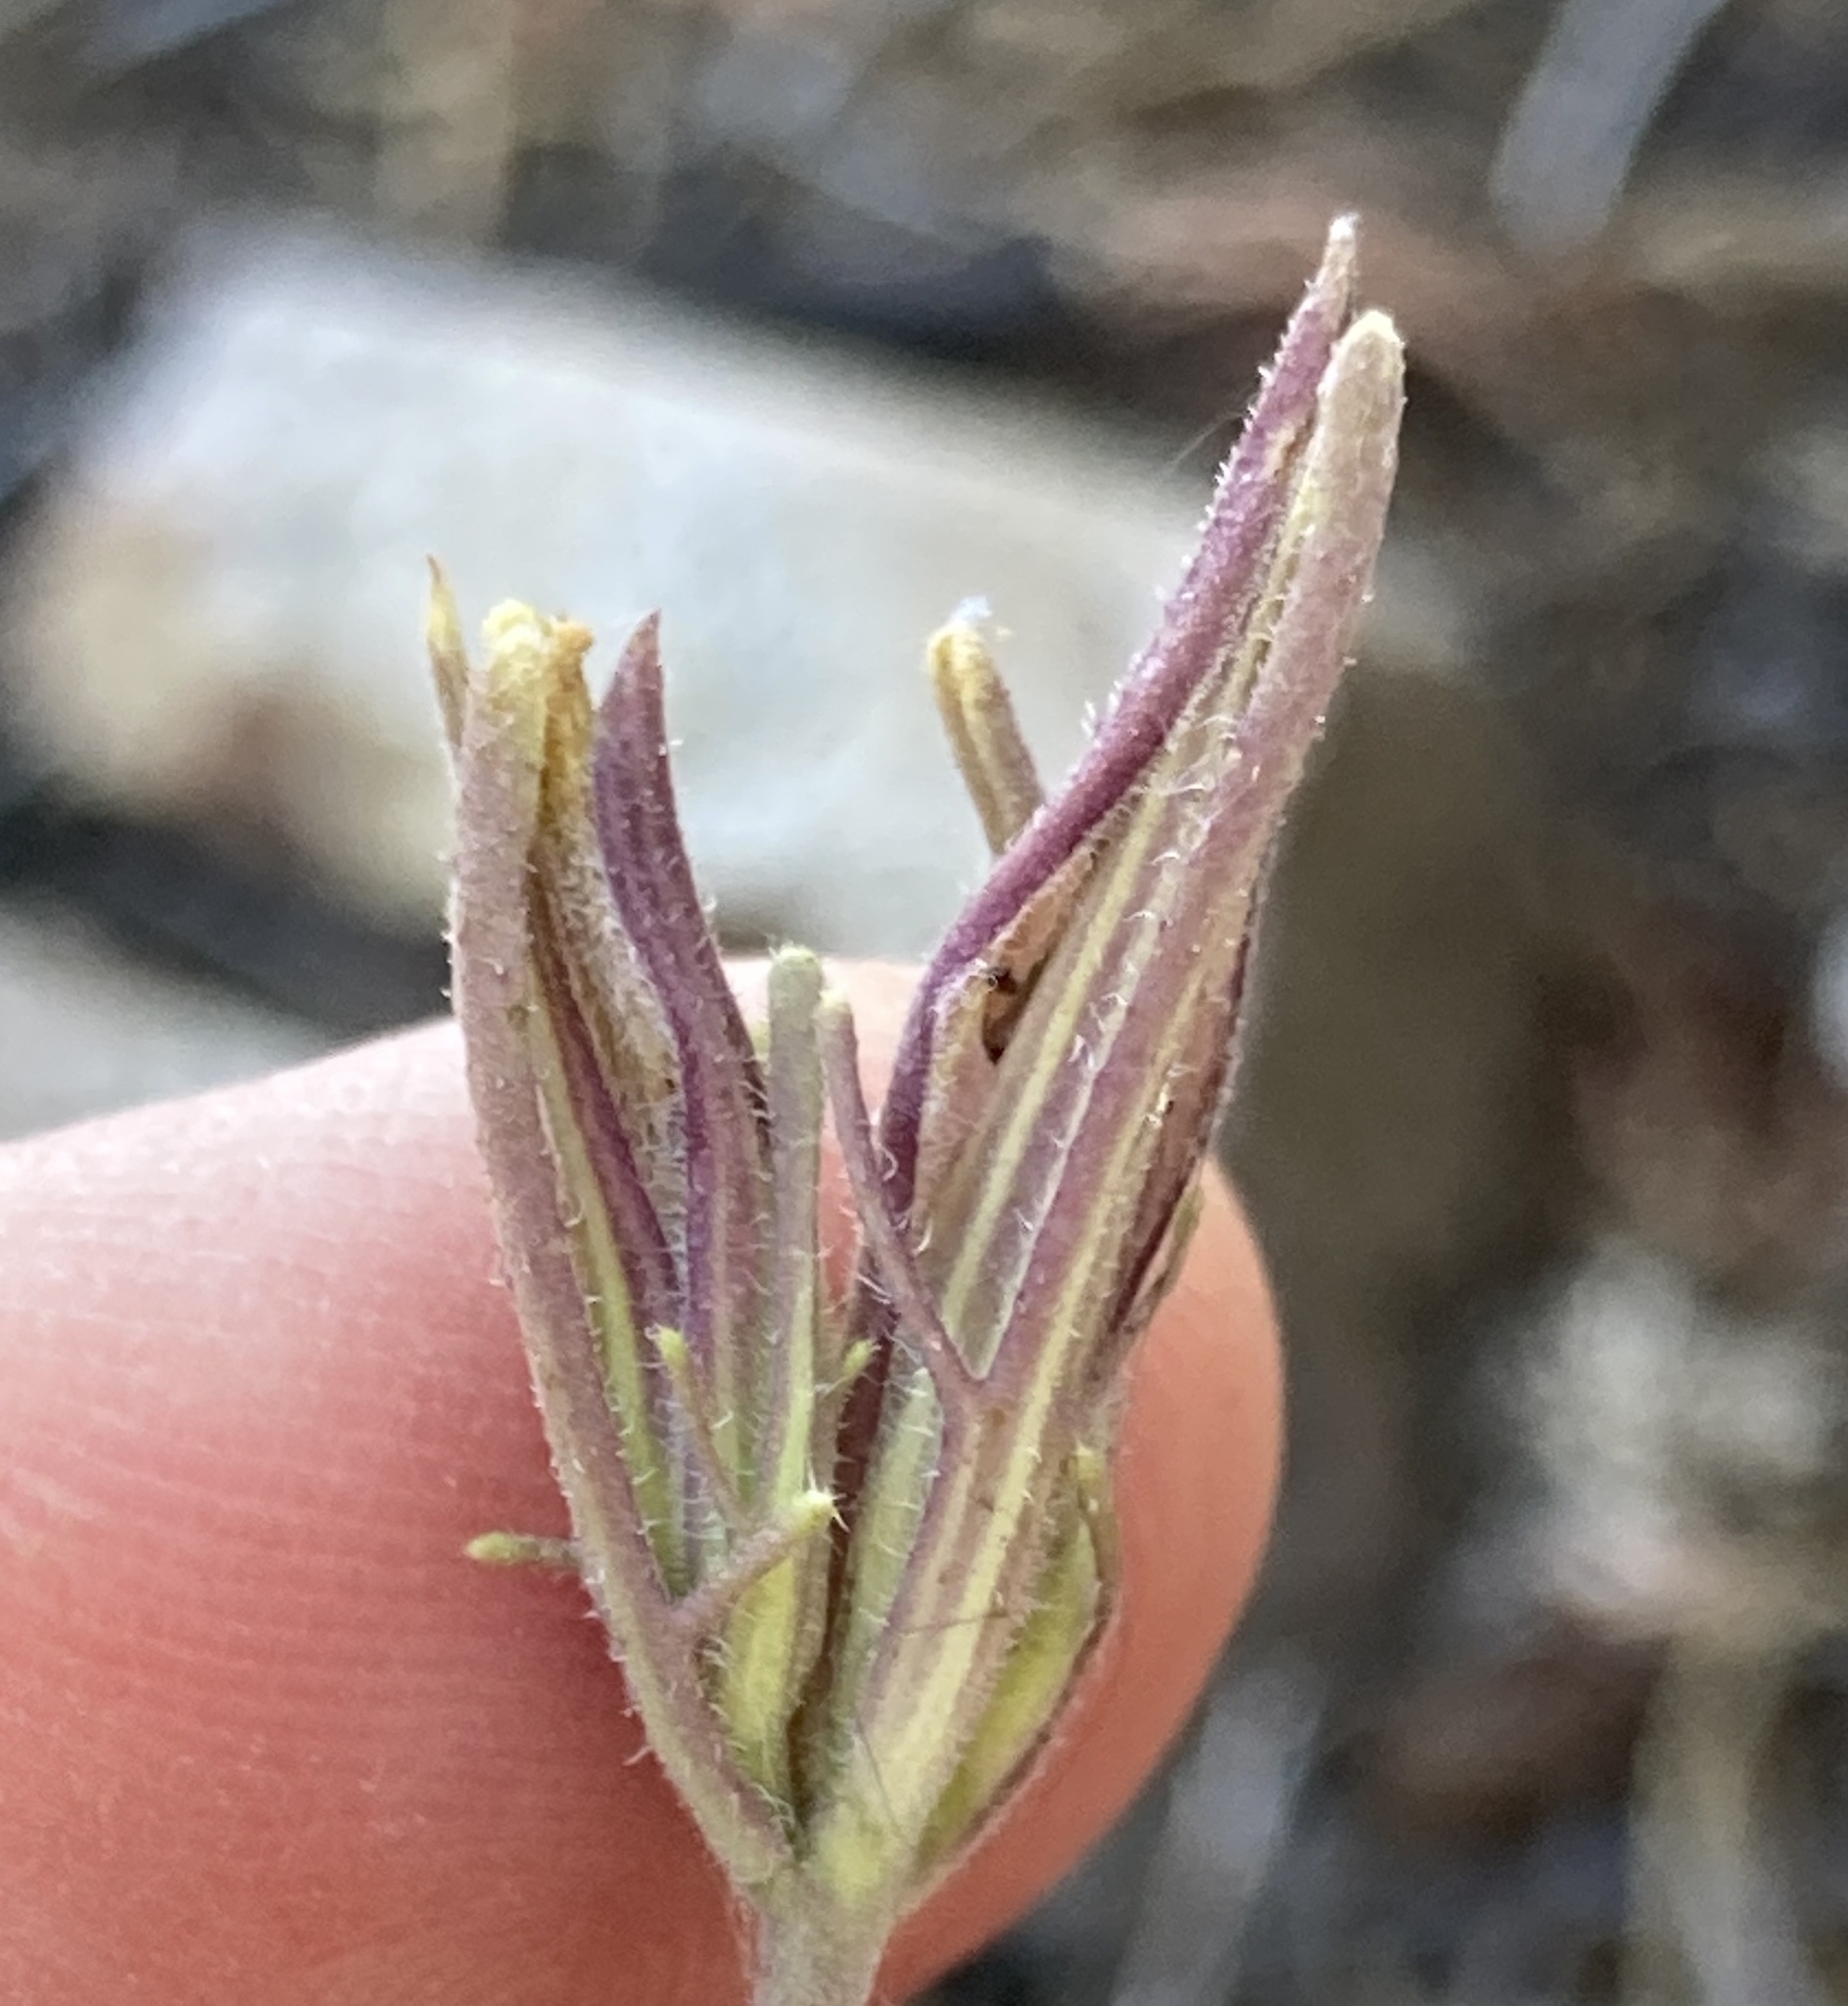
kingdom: Plantae
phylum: Tracheophyta
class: Magnoliopsida
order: Lamiales
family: Orobanchaceae
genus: Cordylanthus
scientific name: Cordylanthus rigidus
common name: Stiff-branch bird's-beak
